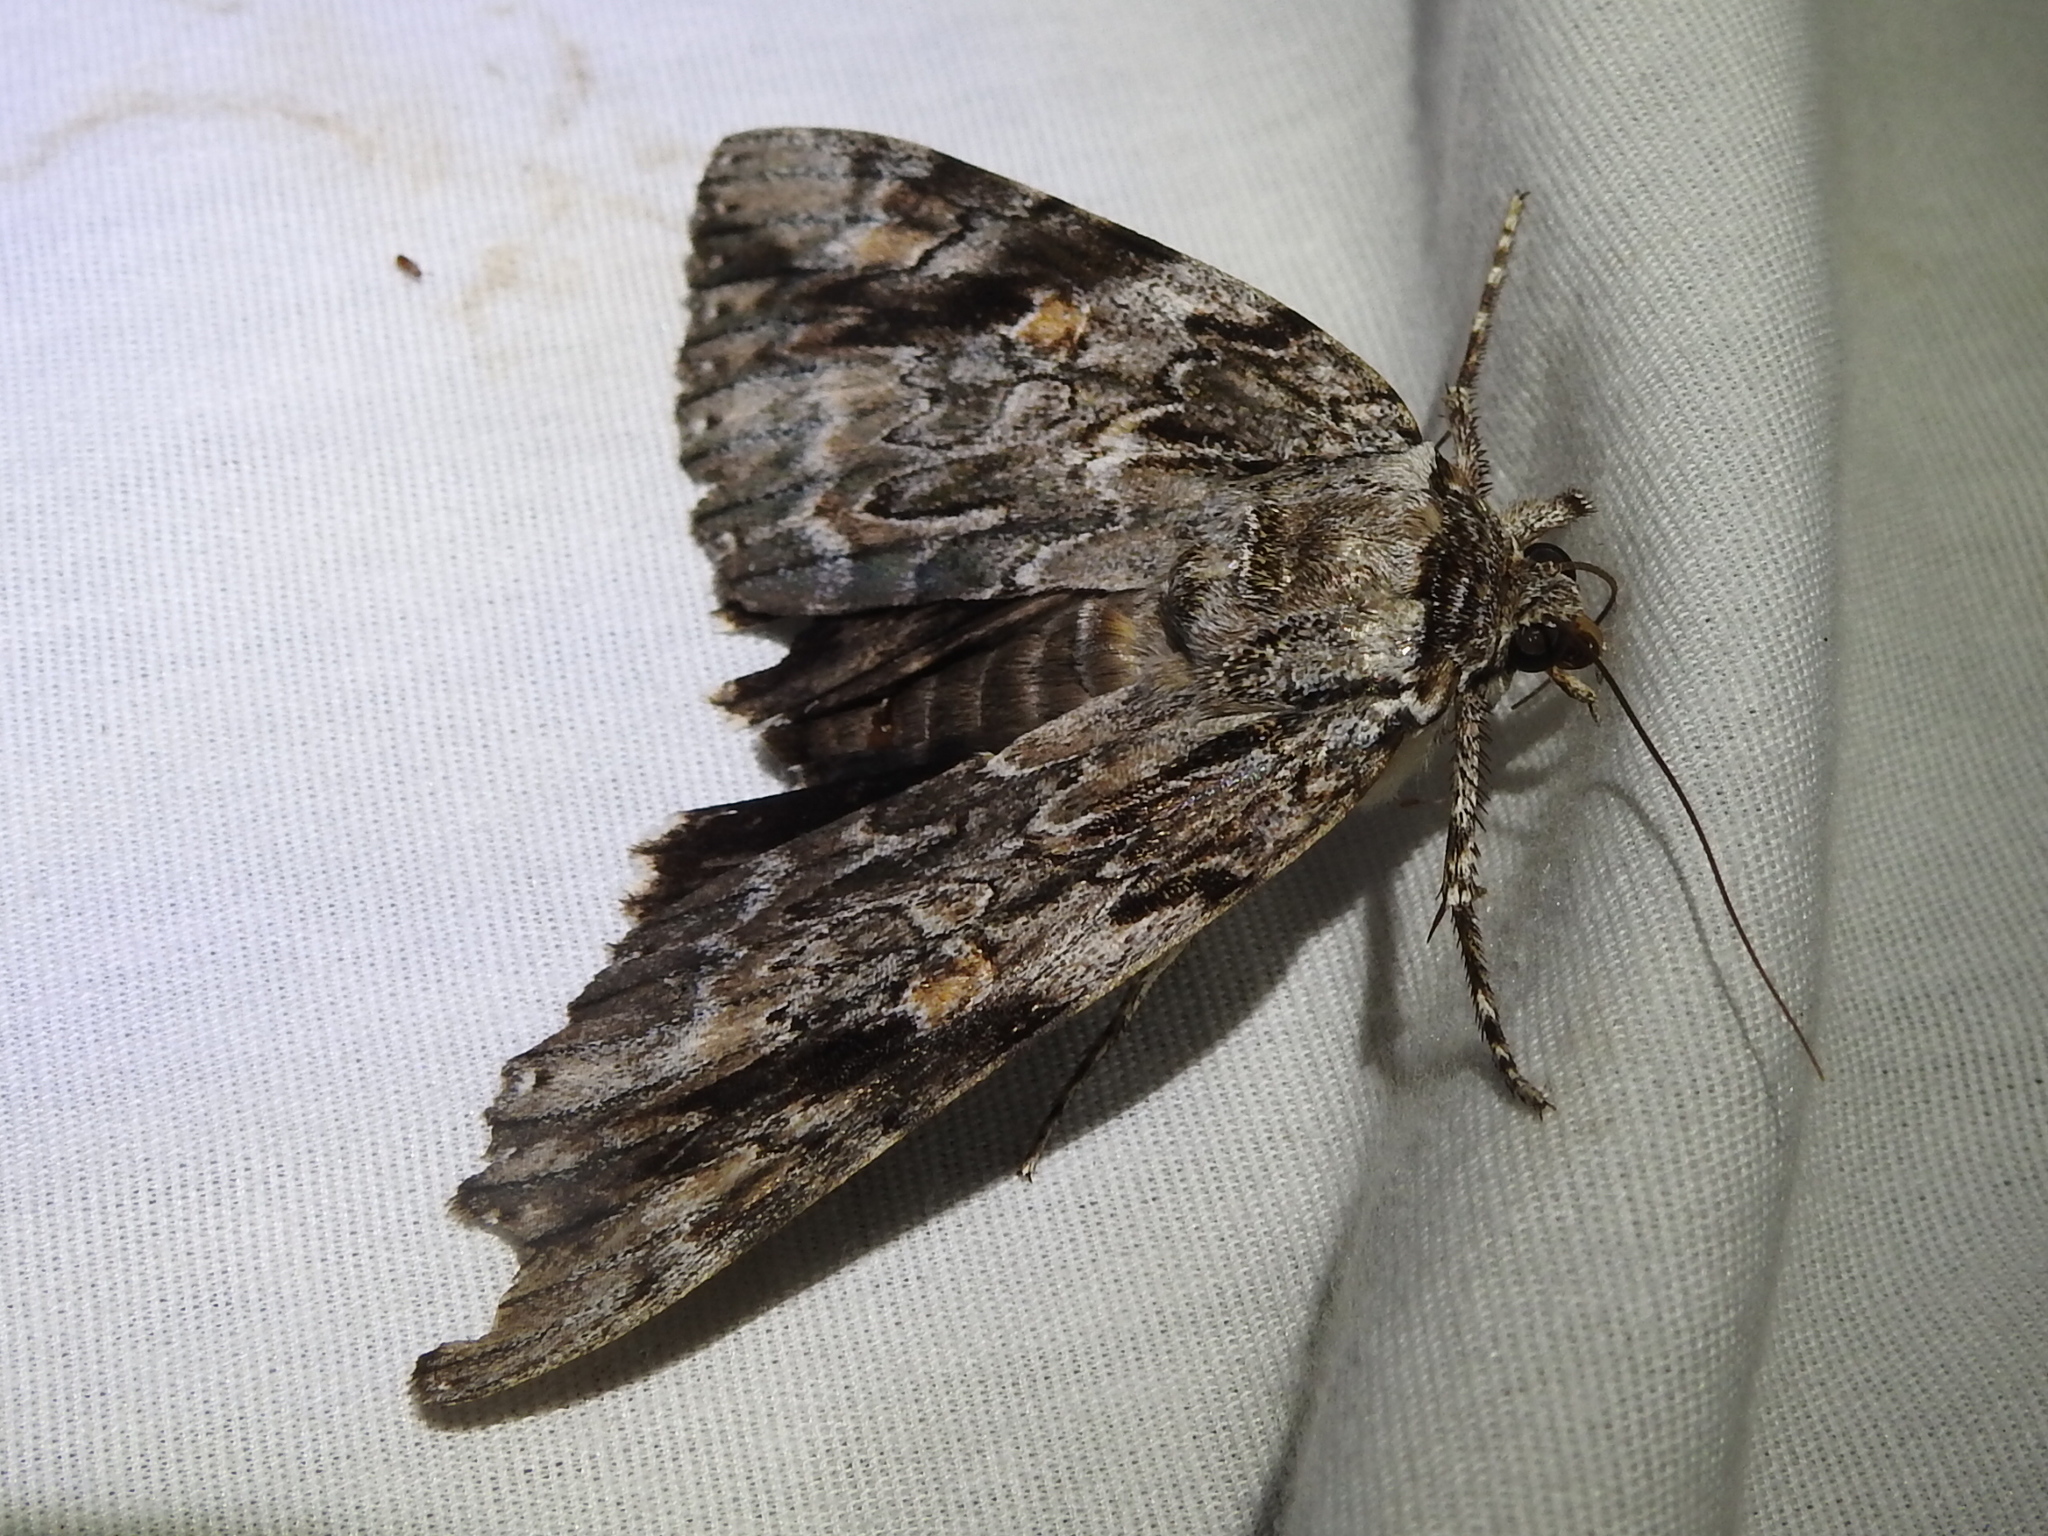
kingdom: Animalia
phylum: Arthropoda
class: Insecta
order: Lepidoptera
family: Erebidae
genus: Catocala
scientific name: Catocala maestosa
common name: Sad underwing
